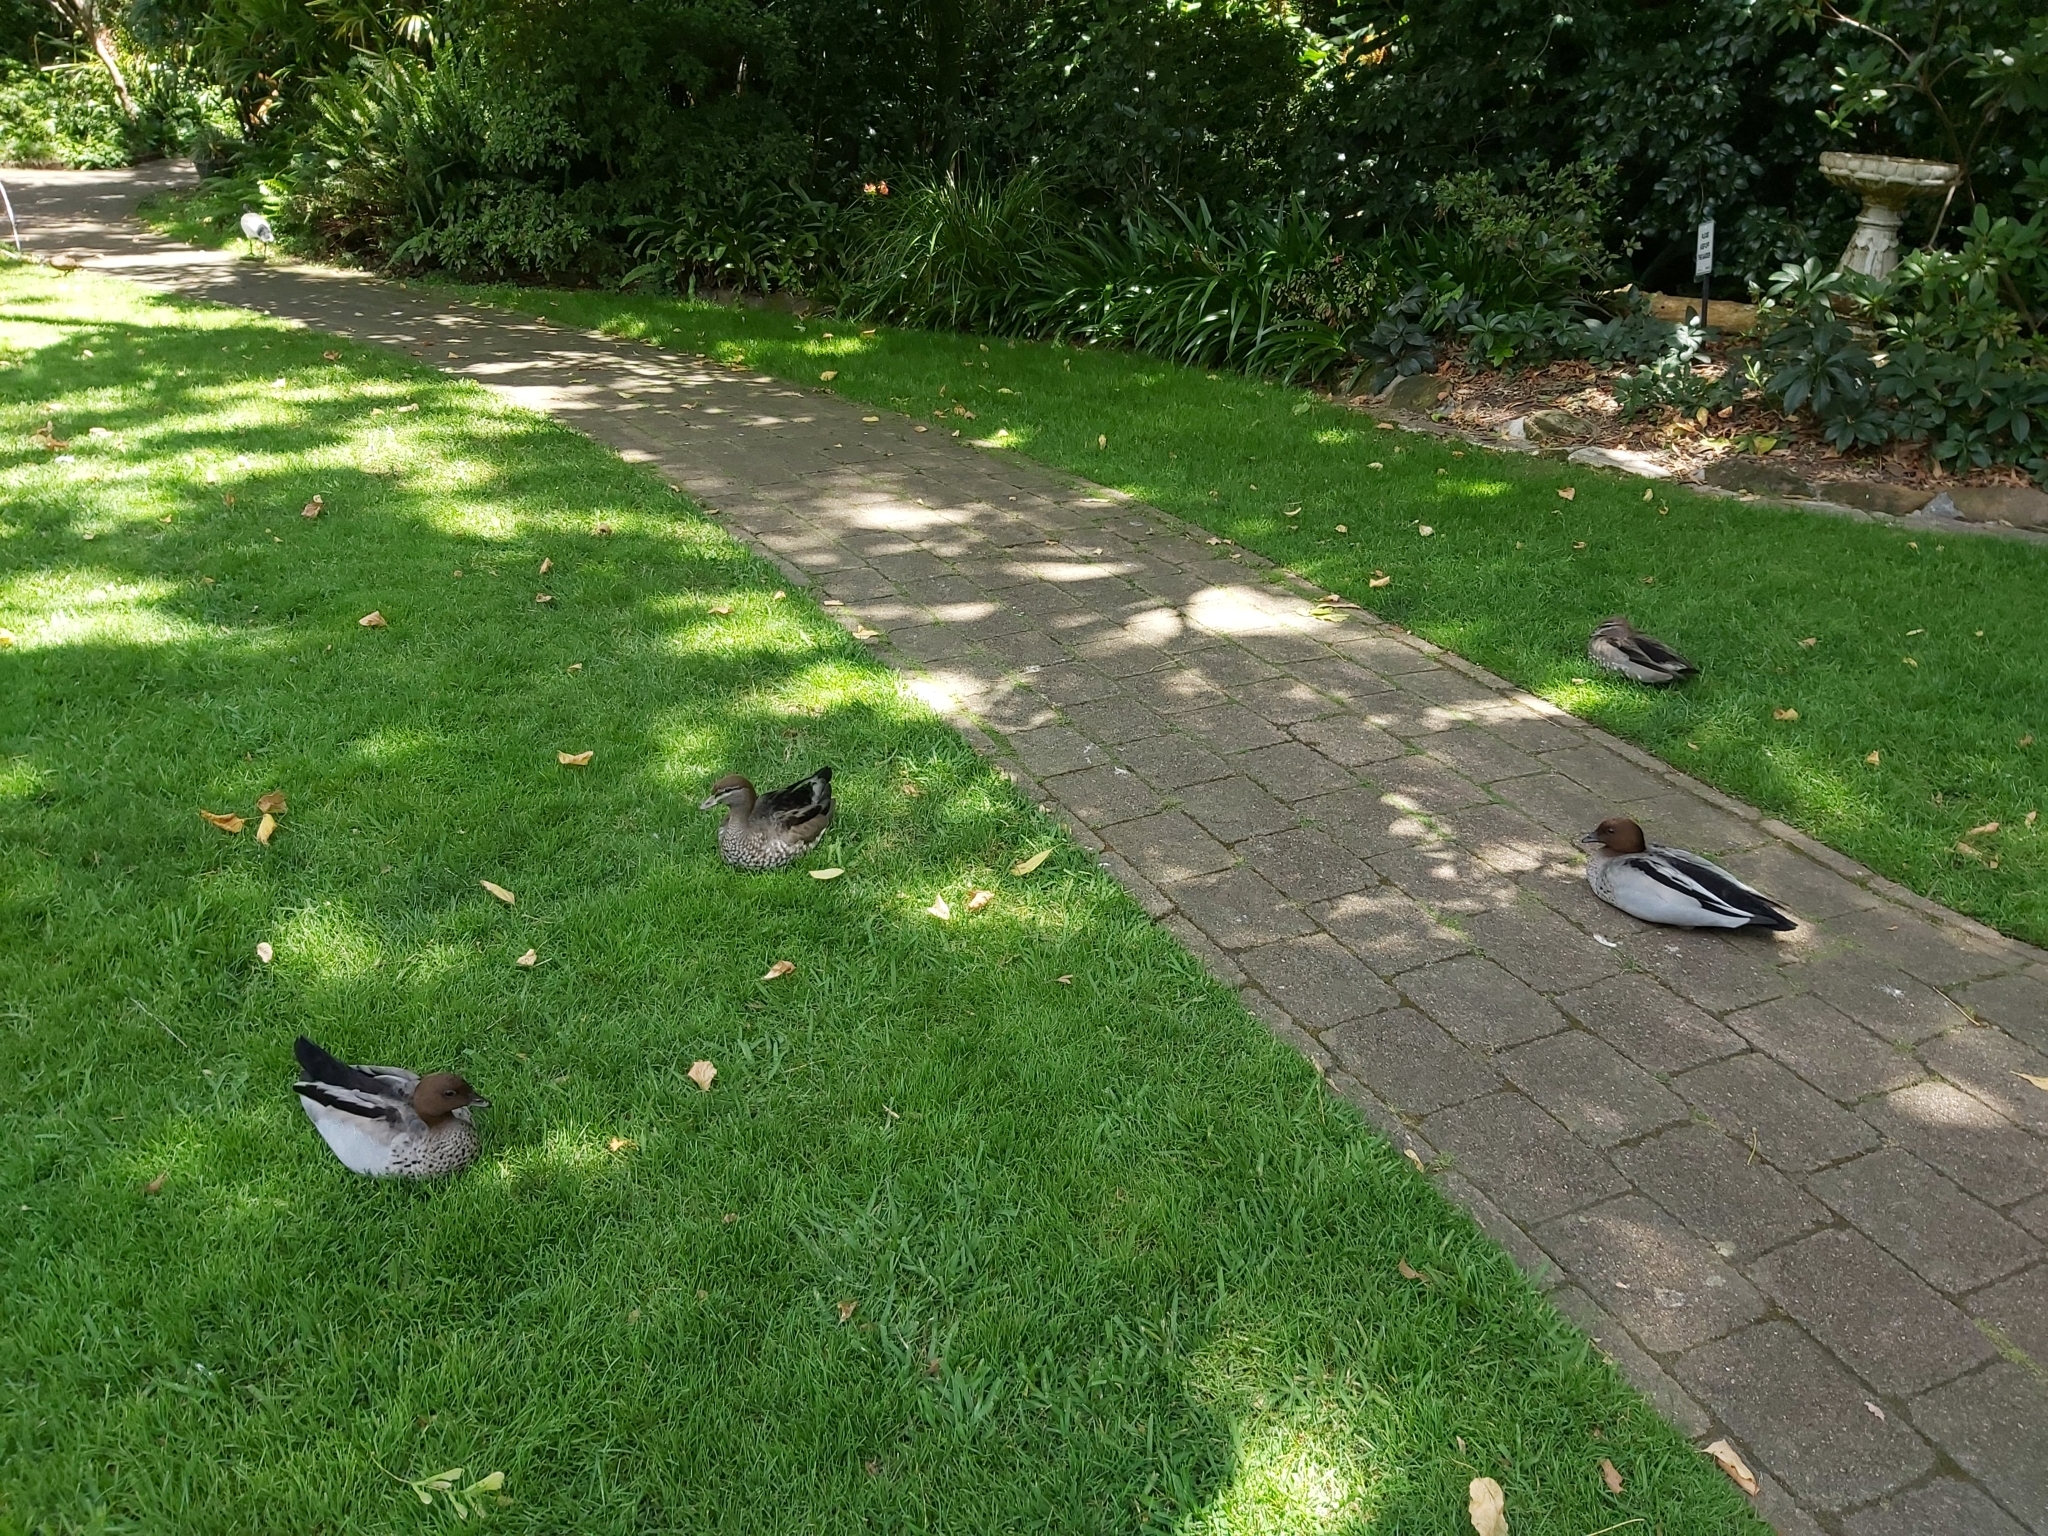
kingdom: Animalia
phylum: Chordata
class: Aves
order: Anseriformes
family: Anatidae
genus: Chenonetta
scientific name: Chenonetta jubata
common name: Maned duck
